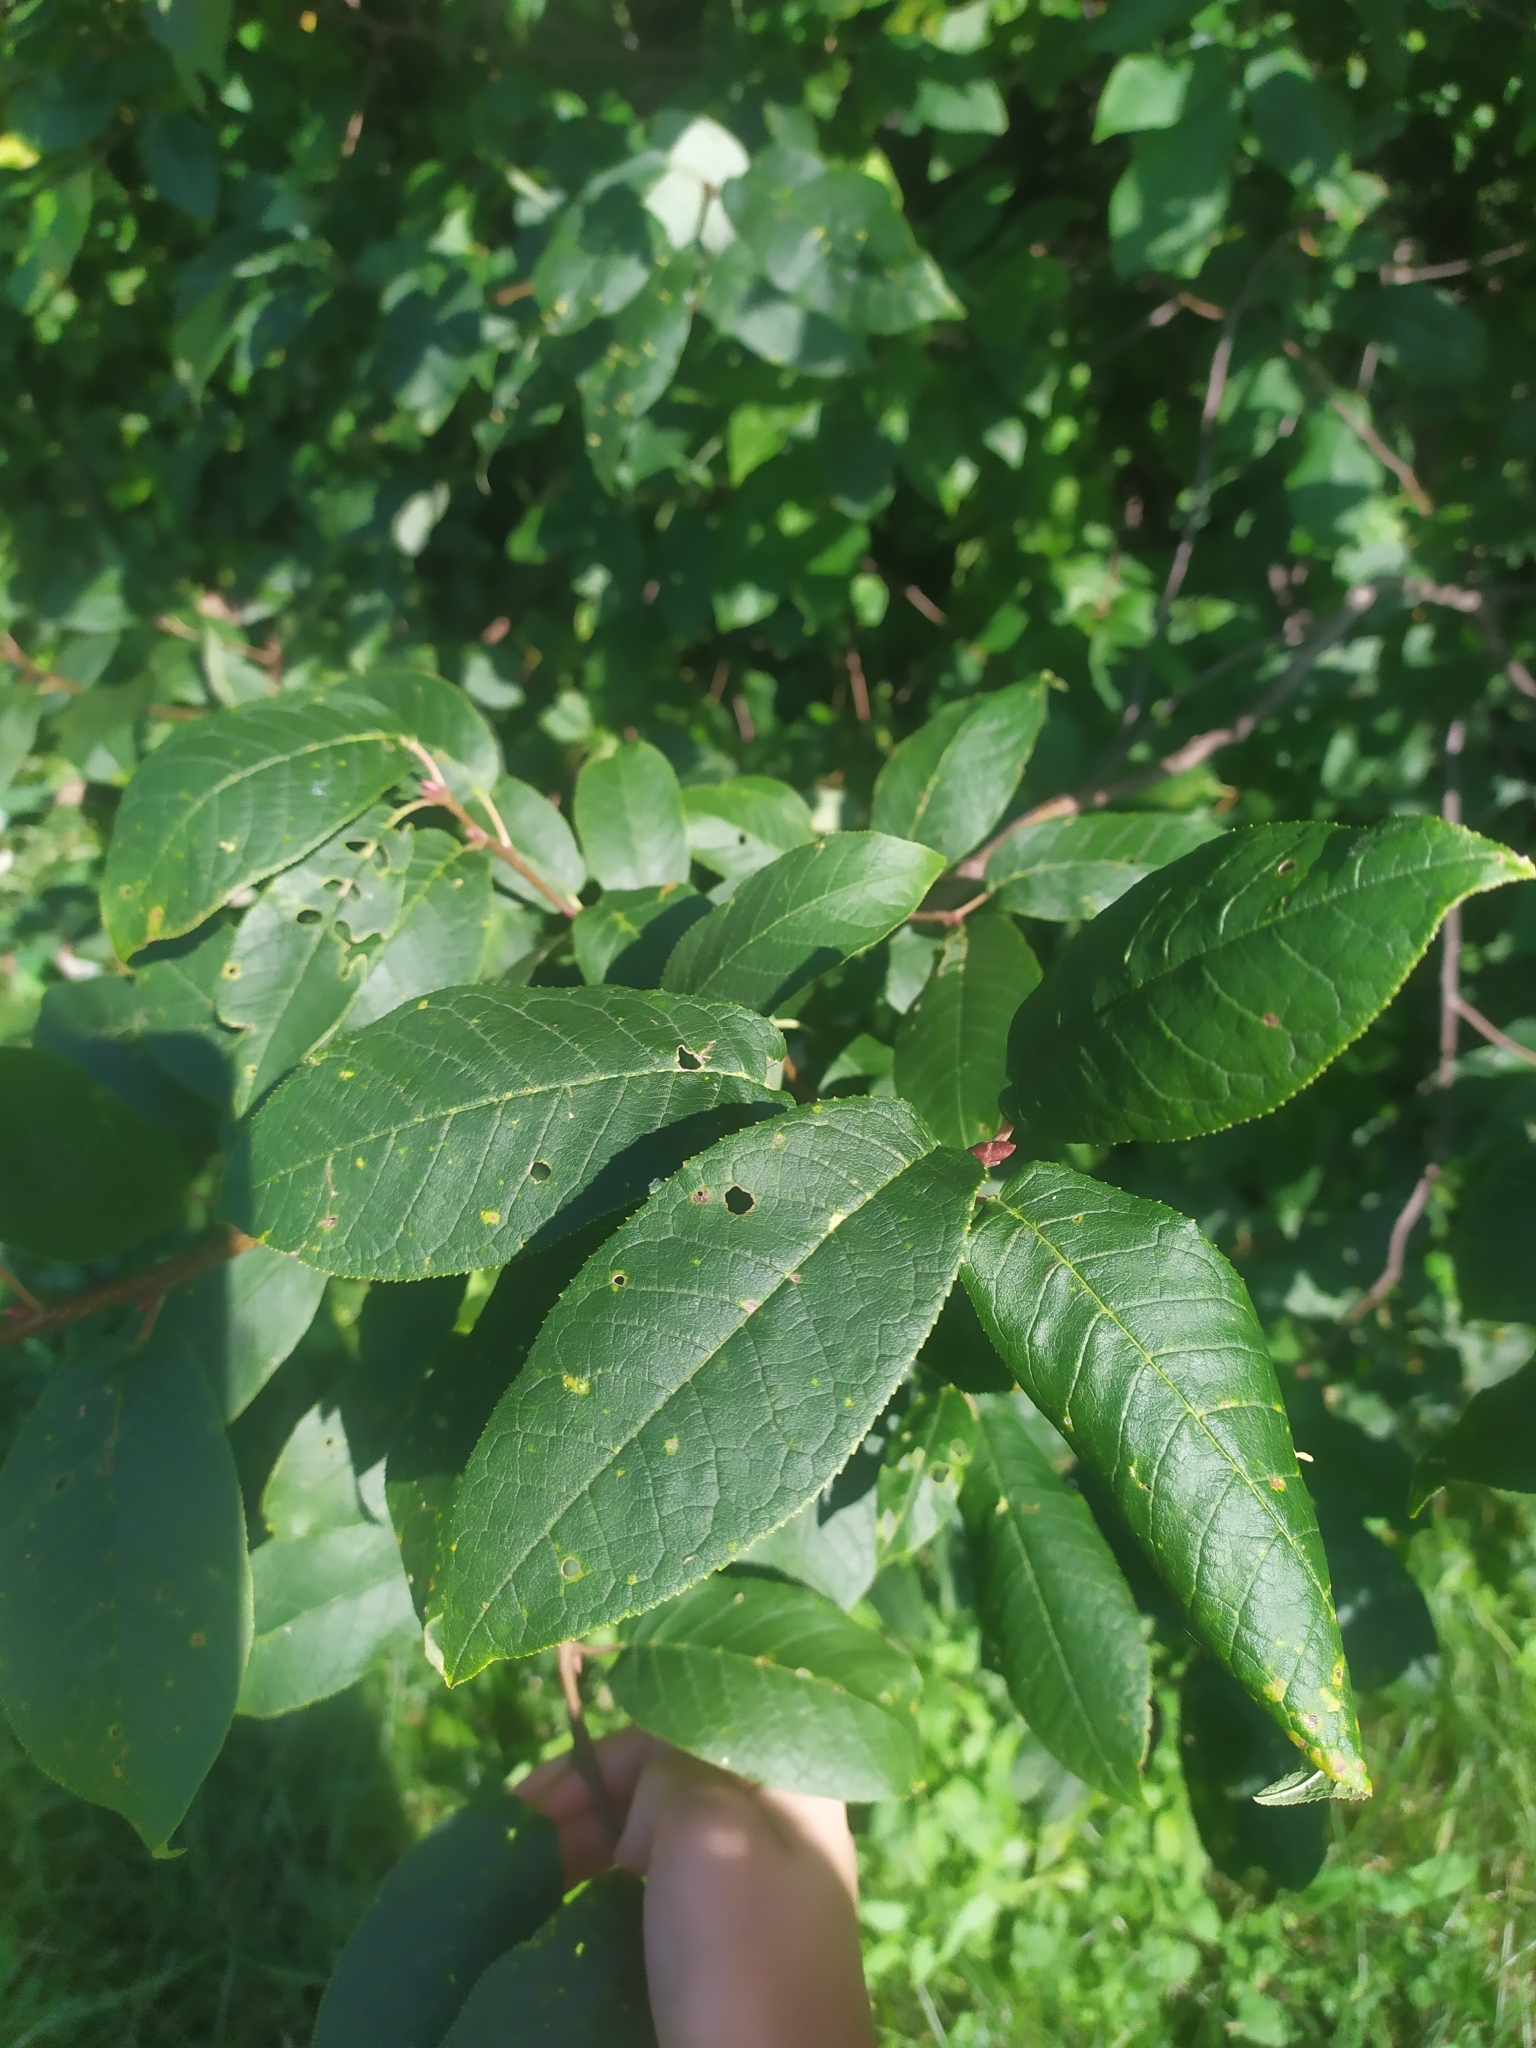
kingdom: Plantae
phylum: Tracheophyta
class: Magnoliopsida
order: Rosales
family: Rosaceae
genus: Prunus
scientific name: Prunus padus
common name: Bird cherry
